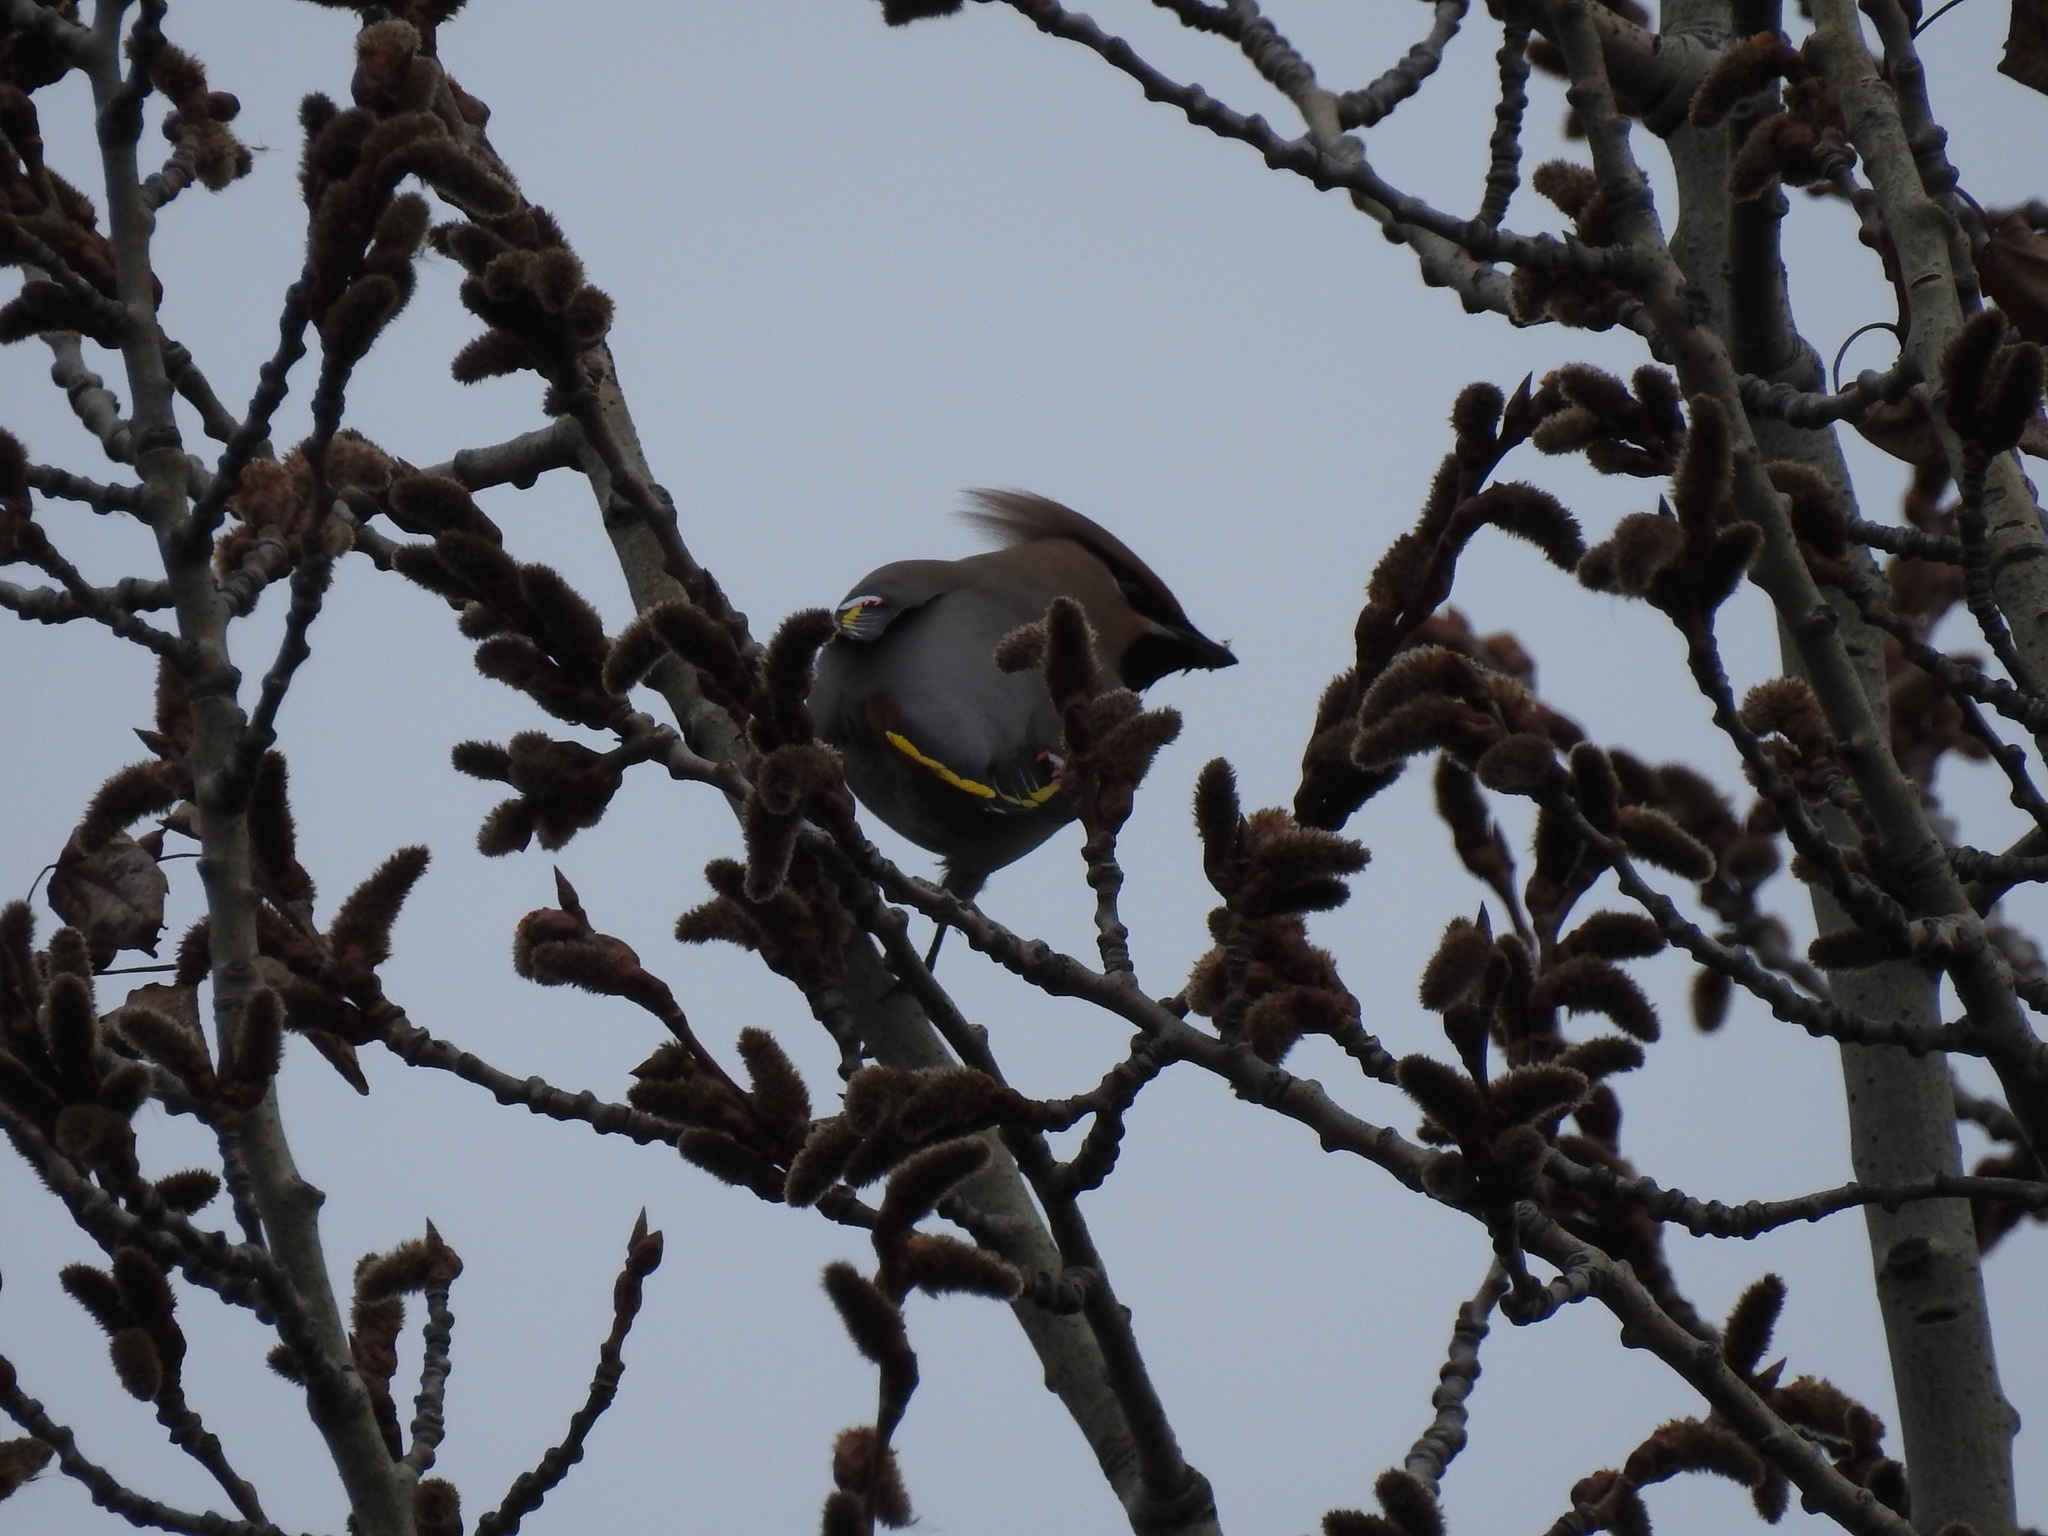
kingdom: Animalia
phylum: Chordata
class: Aves
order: Passeriformes
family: Bombycillidae
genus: Bombycilla
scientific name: Bombycilla garrulus
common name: Bohemian waxwing
